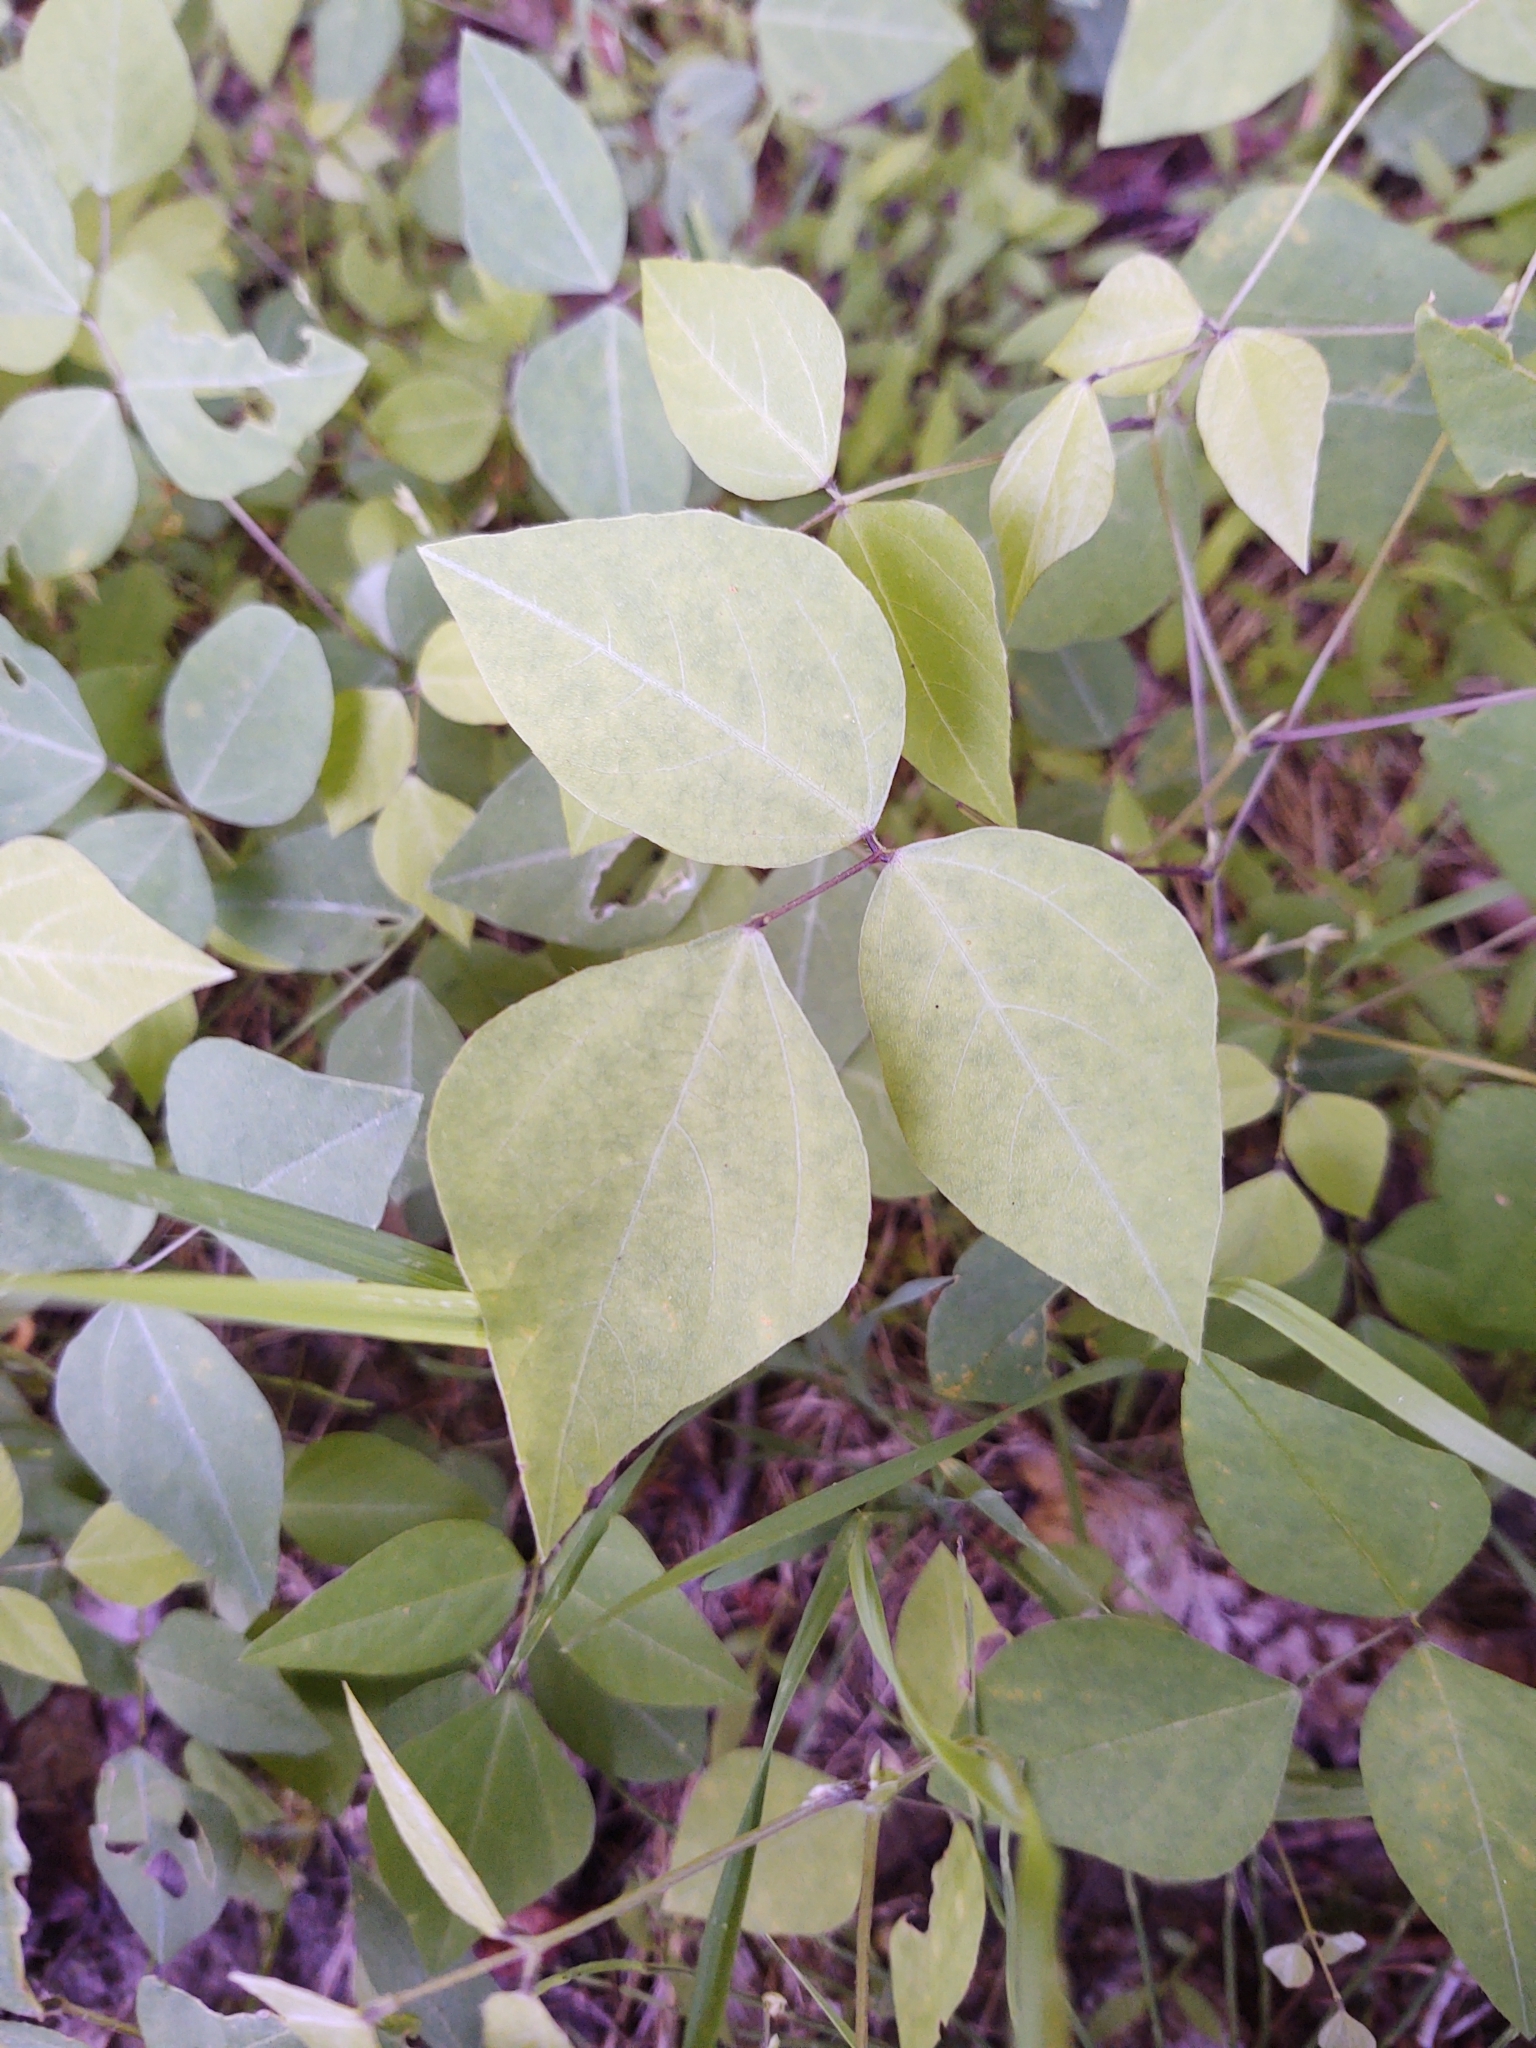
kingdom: Plantae
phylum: Tracheophyta
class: Magnoliopsida
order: Fabales
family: Fabaceae
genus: Amphicarpaea
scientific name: Amphicarpaea bracteata
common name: American hog peanut
